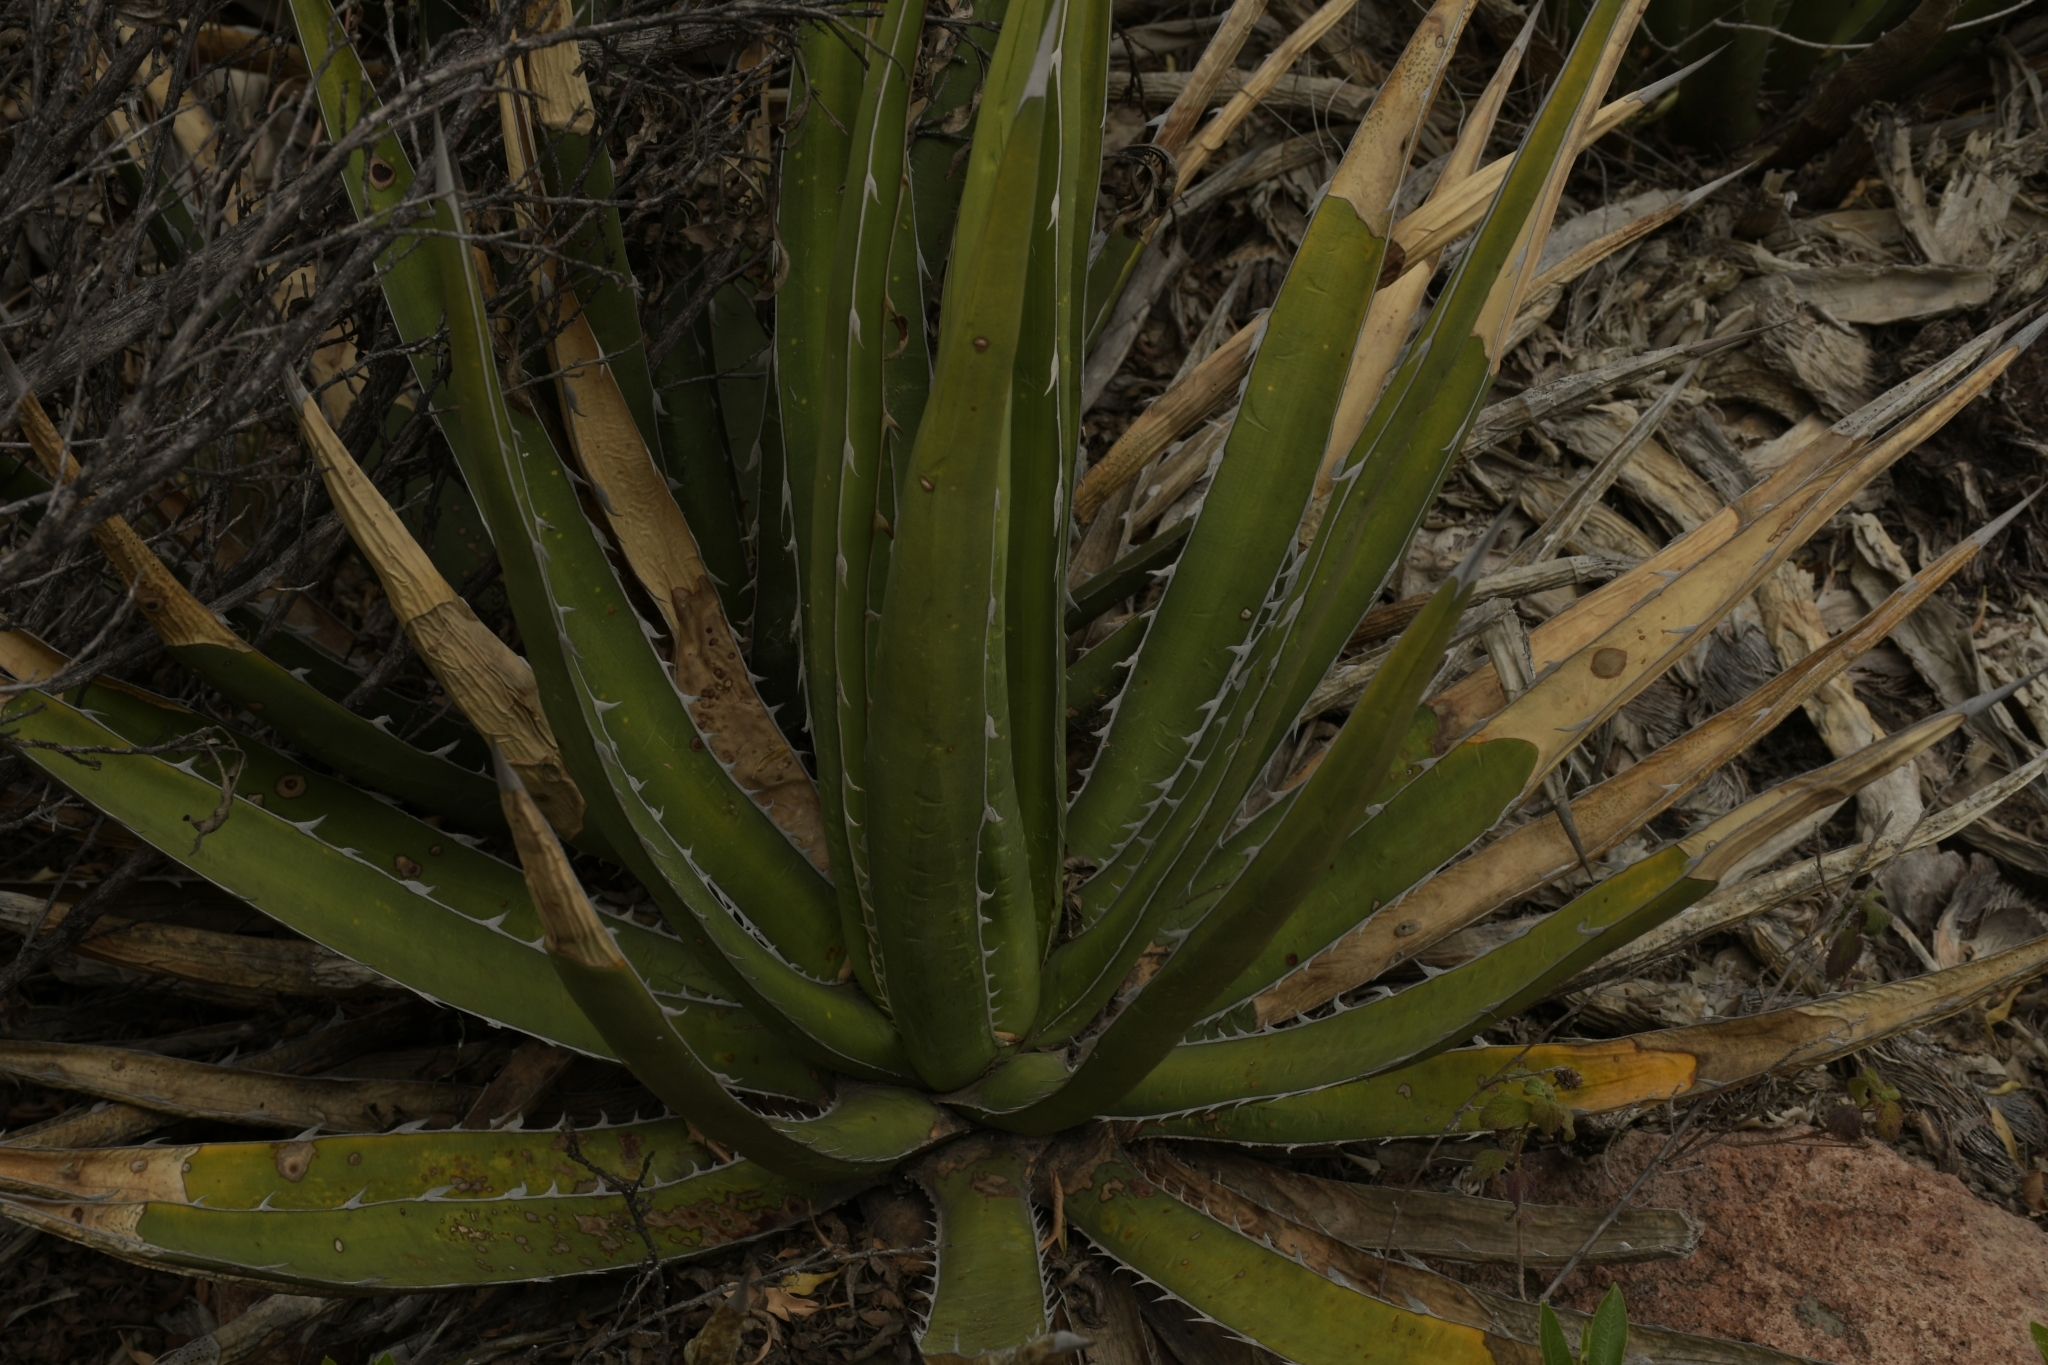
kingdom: Plantae
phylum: Tracheophyta
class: Liliopsida
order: Asparagales
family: Asparagaceae
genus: Agave
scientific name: Agave lechuguilla
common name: Lecheguilla agave
